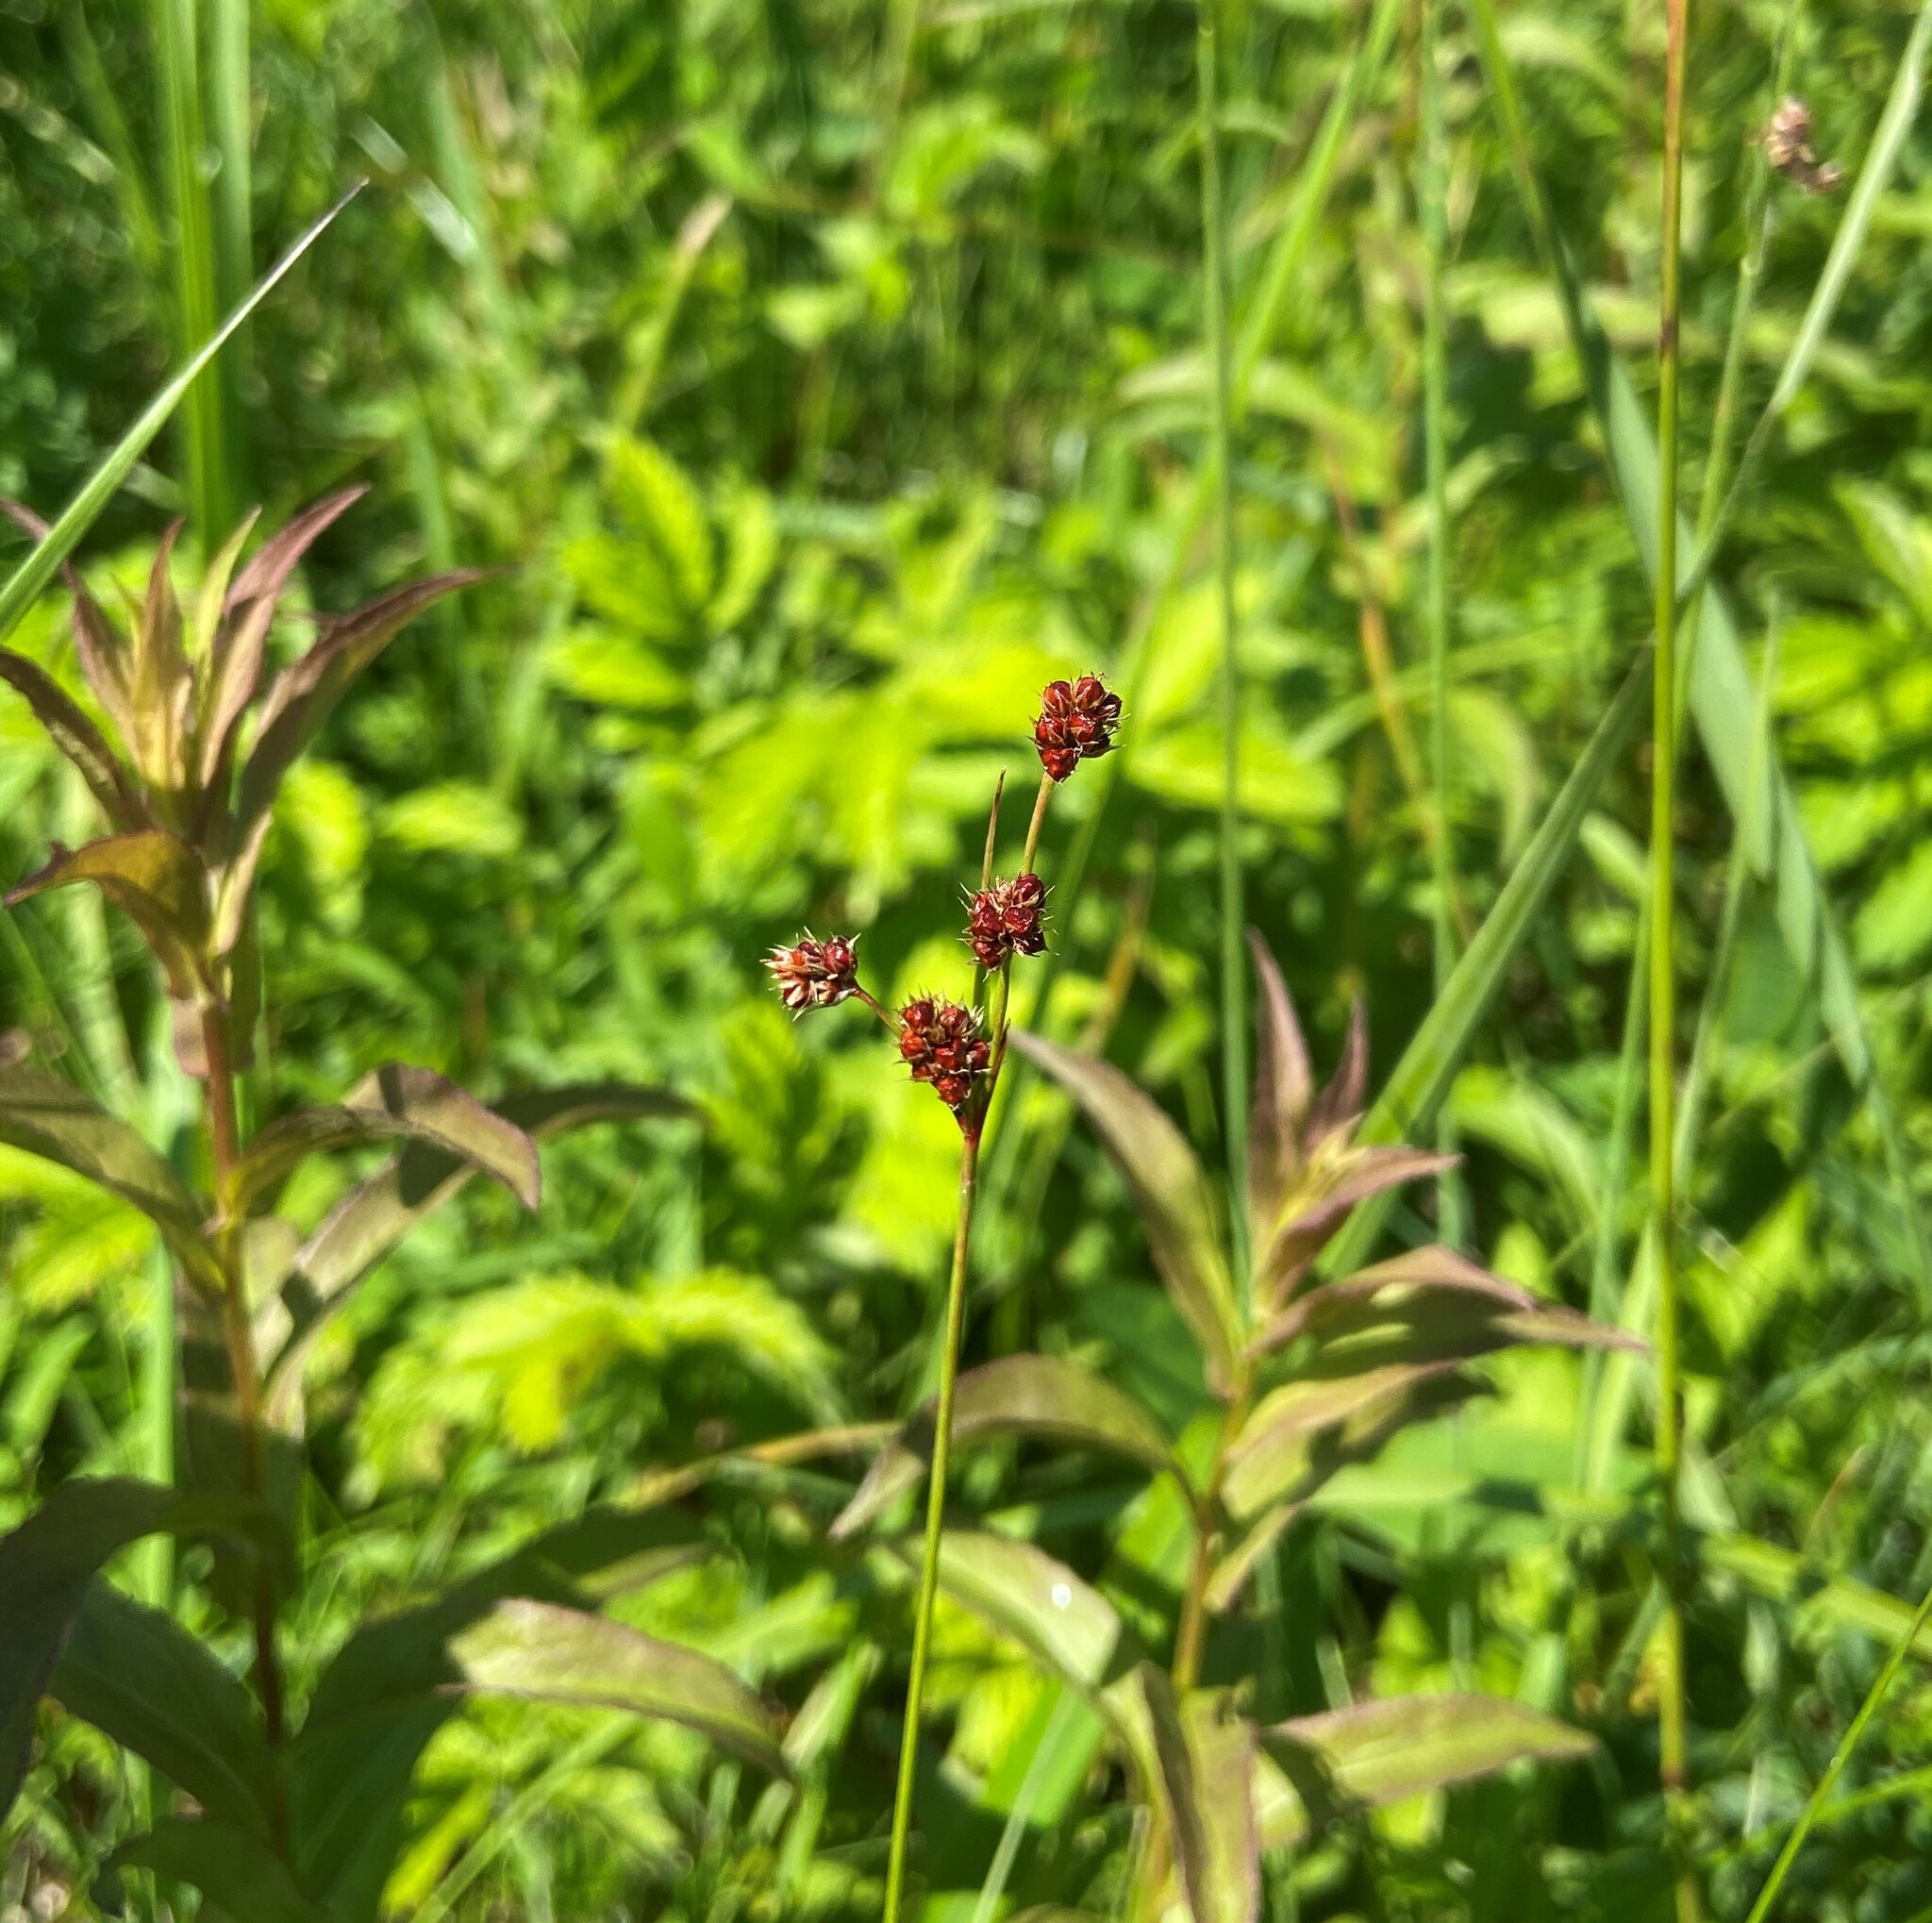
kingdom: Plantae
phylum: Tracheophyta
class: Liliopsida
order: Poales
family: Juncaceae
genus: Luzula
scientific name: Luzula multiflora
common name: Heath wood-rush
